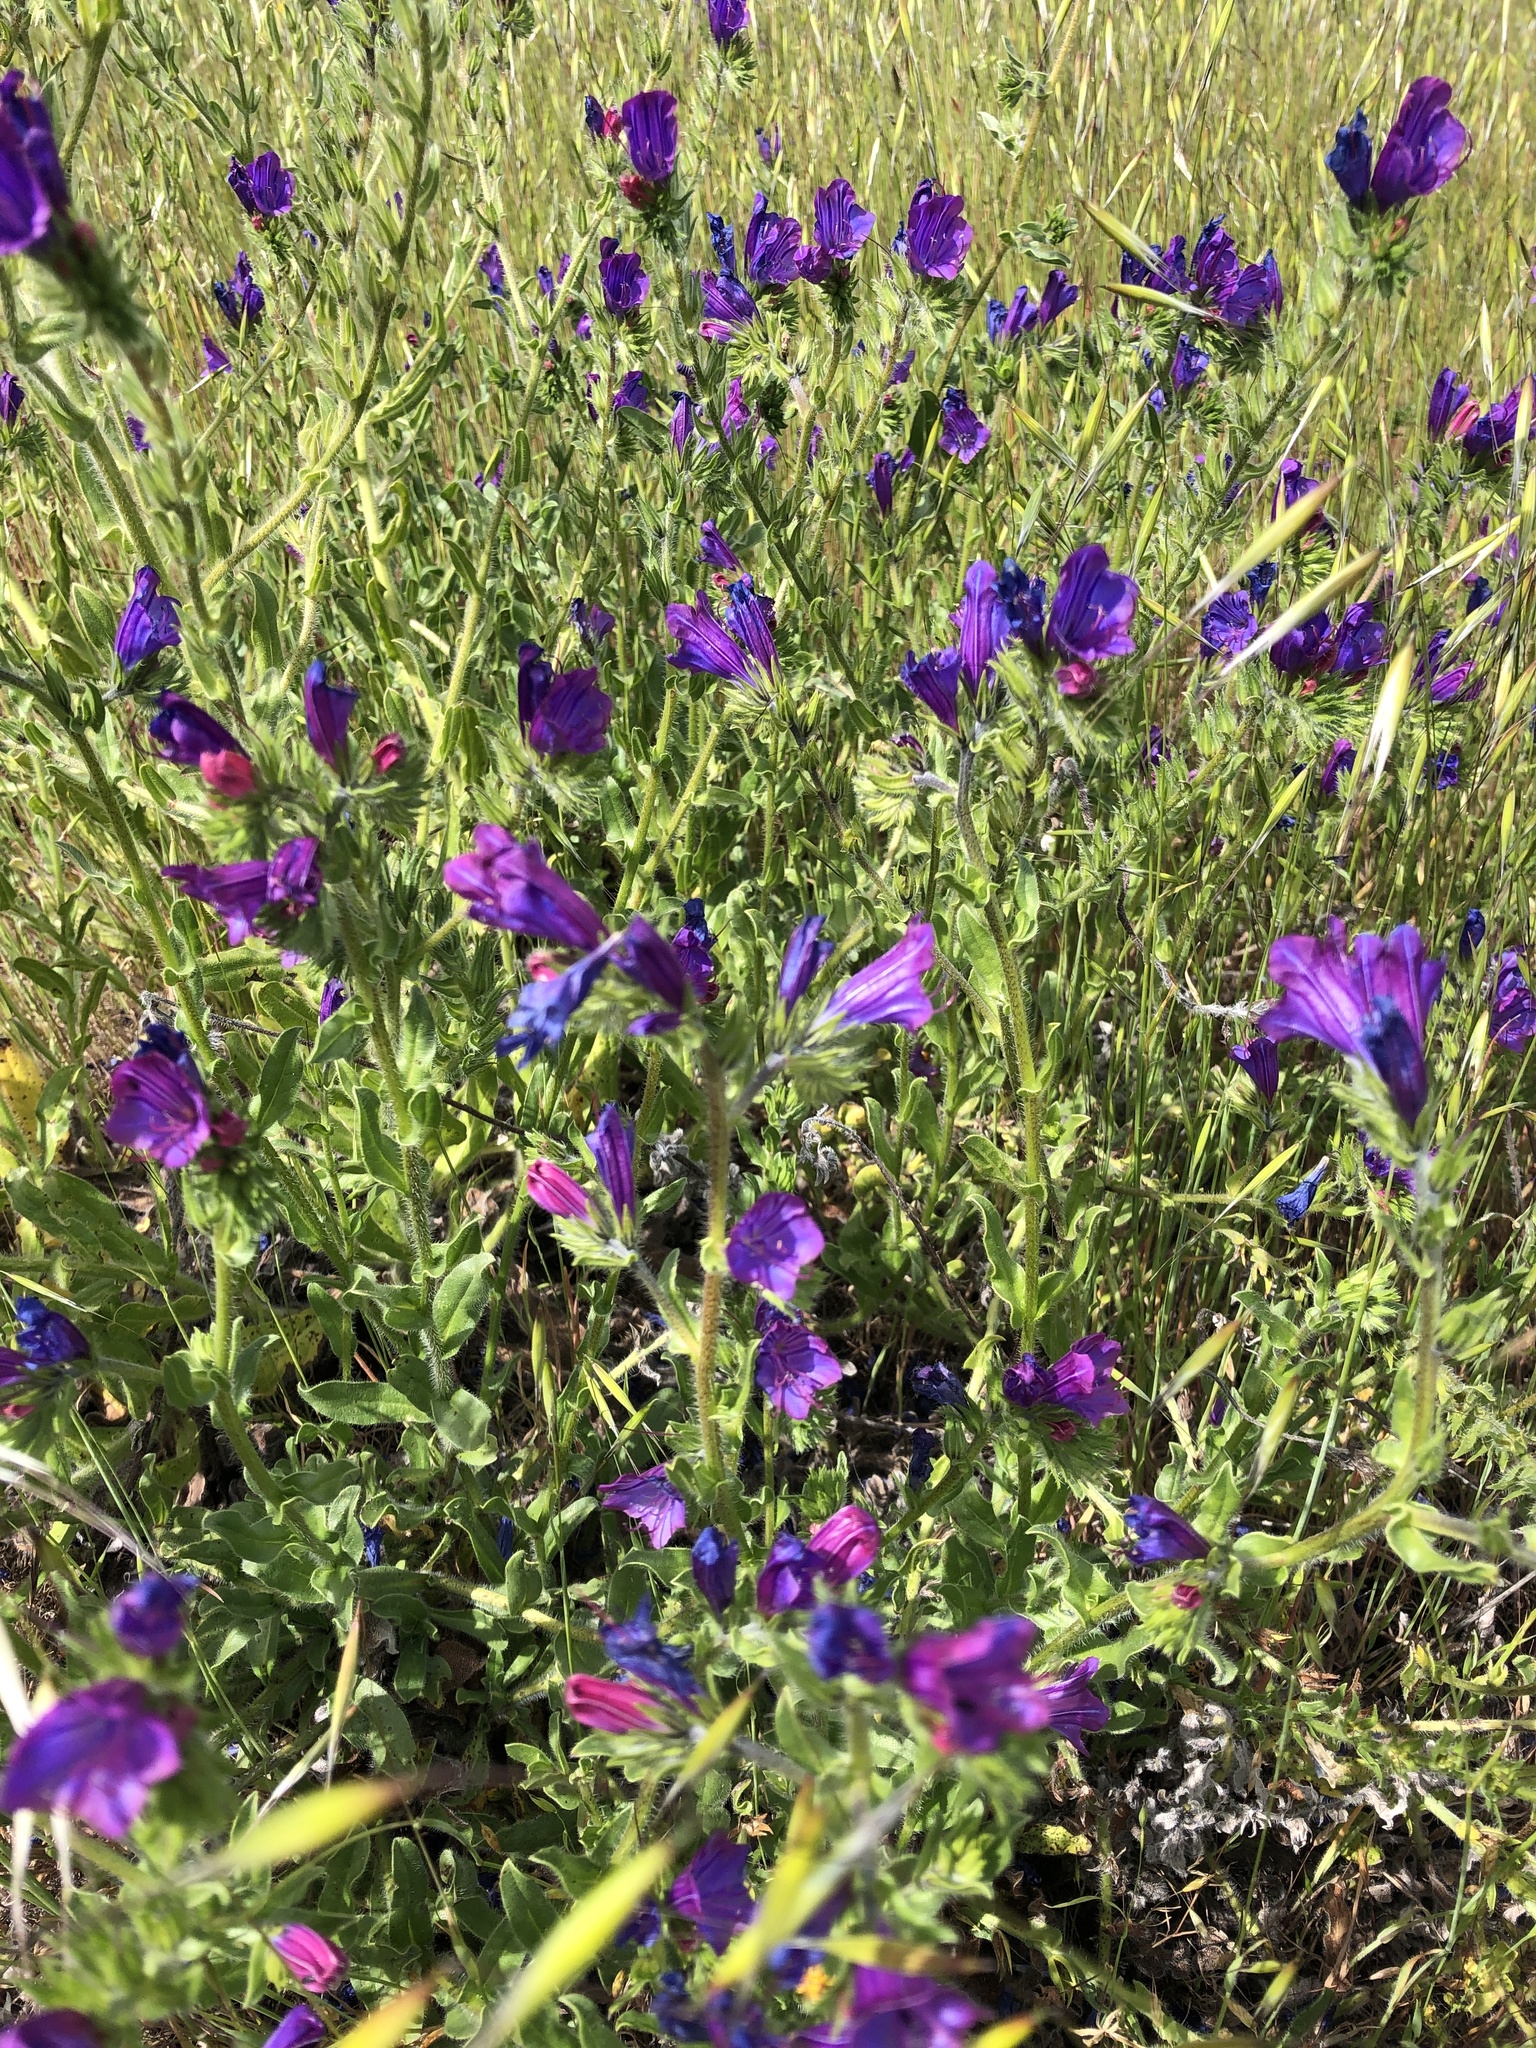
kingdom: Plantae
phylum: Tracheophyta
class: Magnoliopsida
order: Boraginales
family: Boraginaceae
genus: Echium
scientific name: Echium plantagineum
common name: Purple viper's-bugloss
